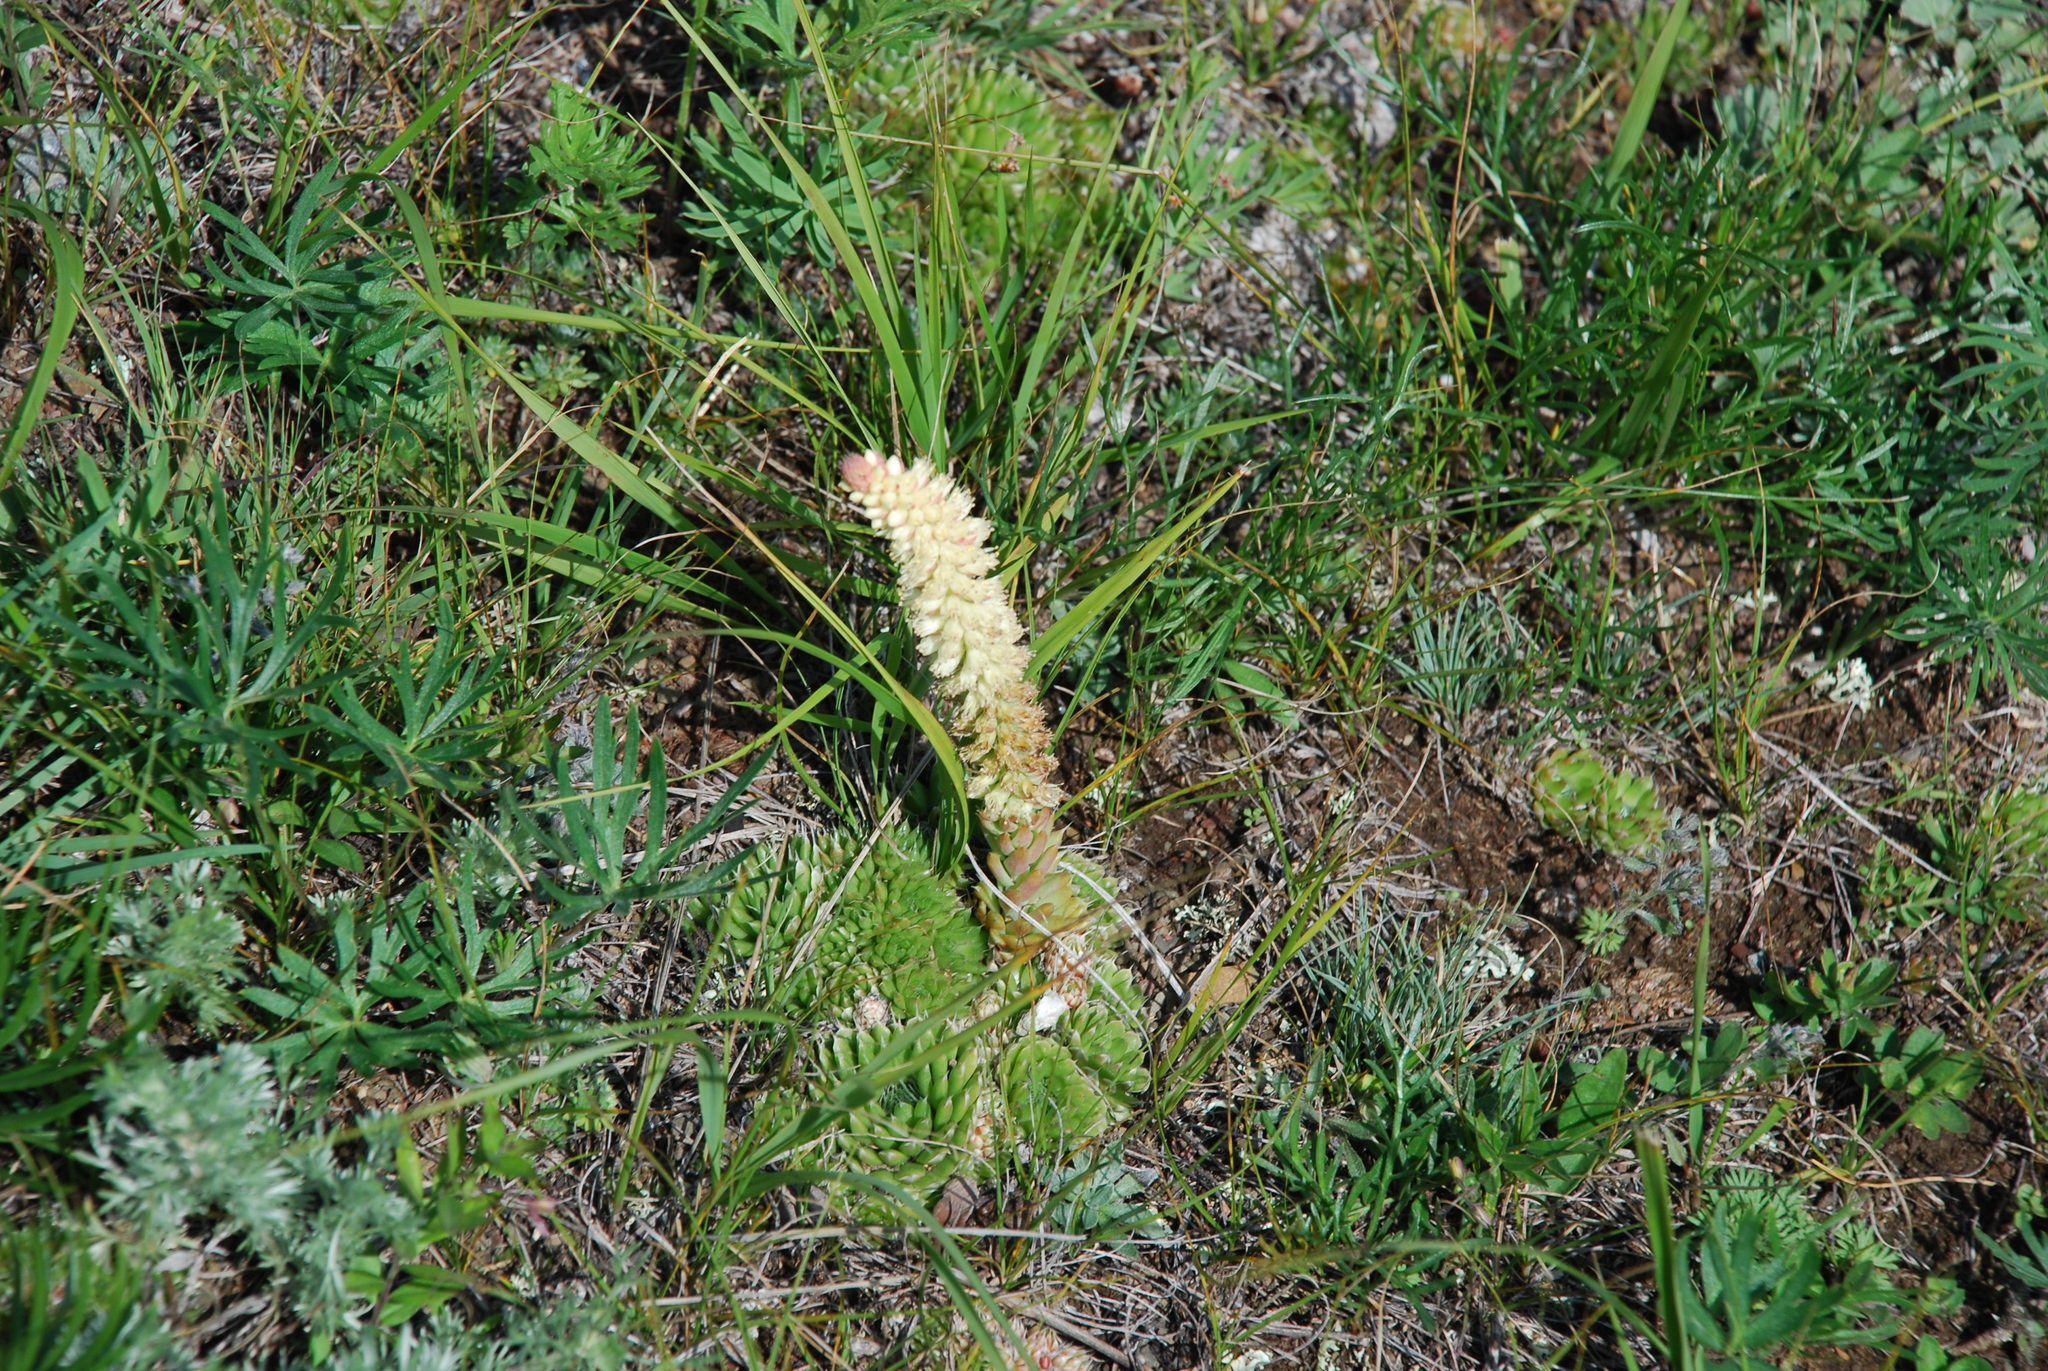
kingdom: Plantae
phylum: Tracheophyta
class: Magnoliopsida
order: Saxifragales
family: Crassulaceae
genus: Orostachys
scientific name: Orostachys spinosa
